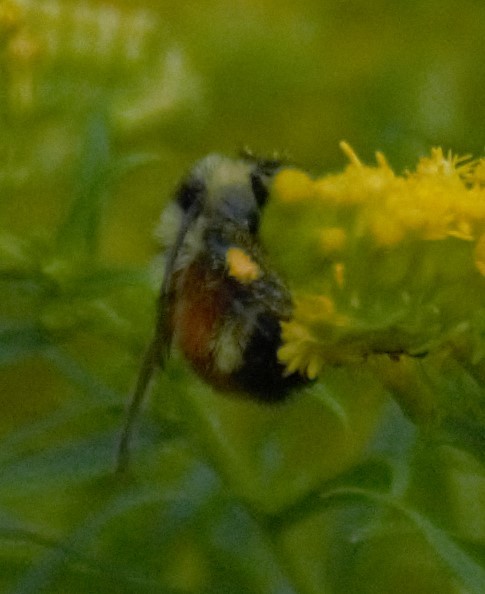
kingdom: Animalia
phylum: Arthropoda
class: Insecta
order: Hymenoptera
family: Apidae
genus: Bombus
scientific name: Bombus ternarius
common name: Tri-colored bumble bee
